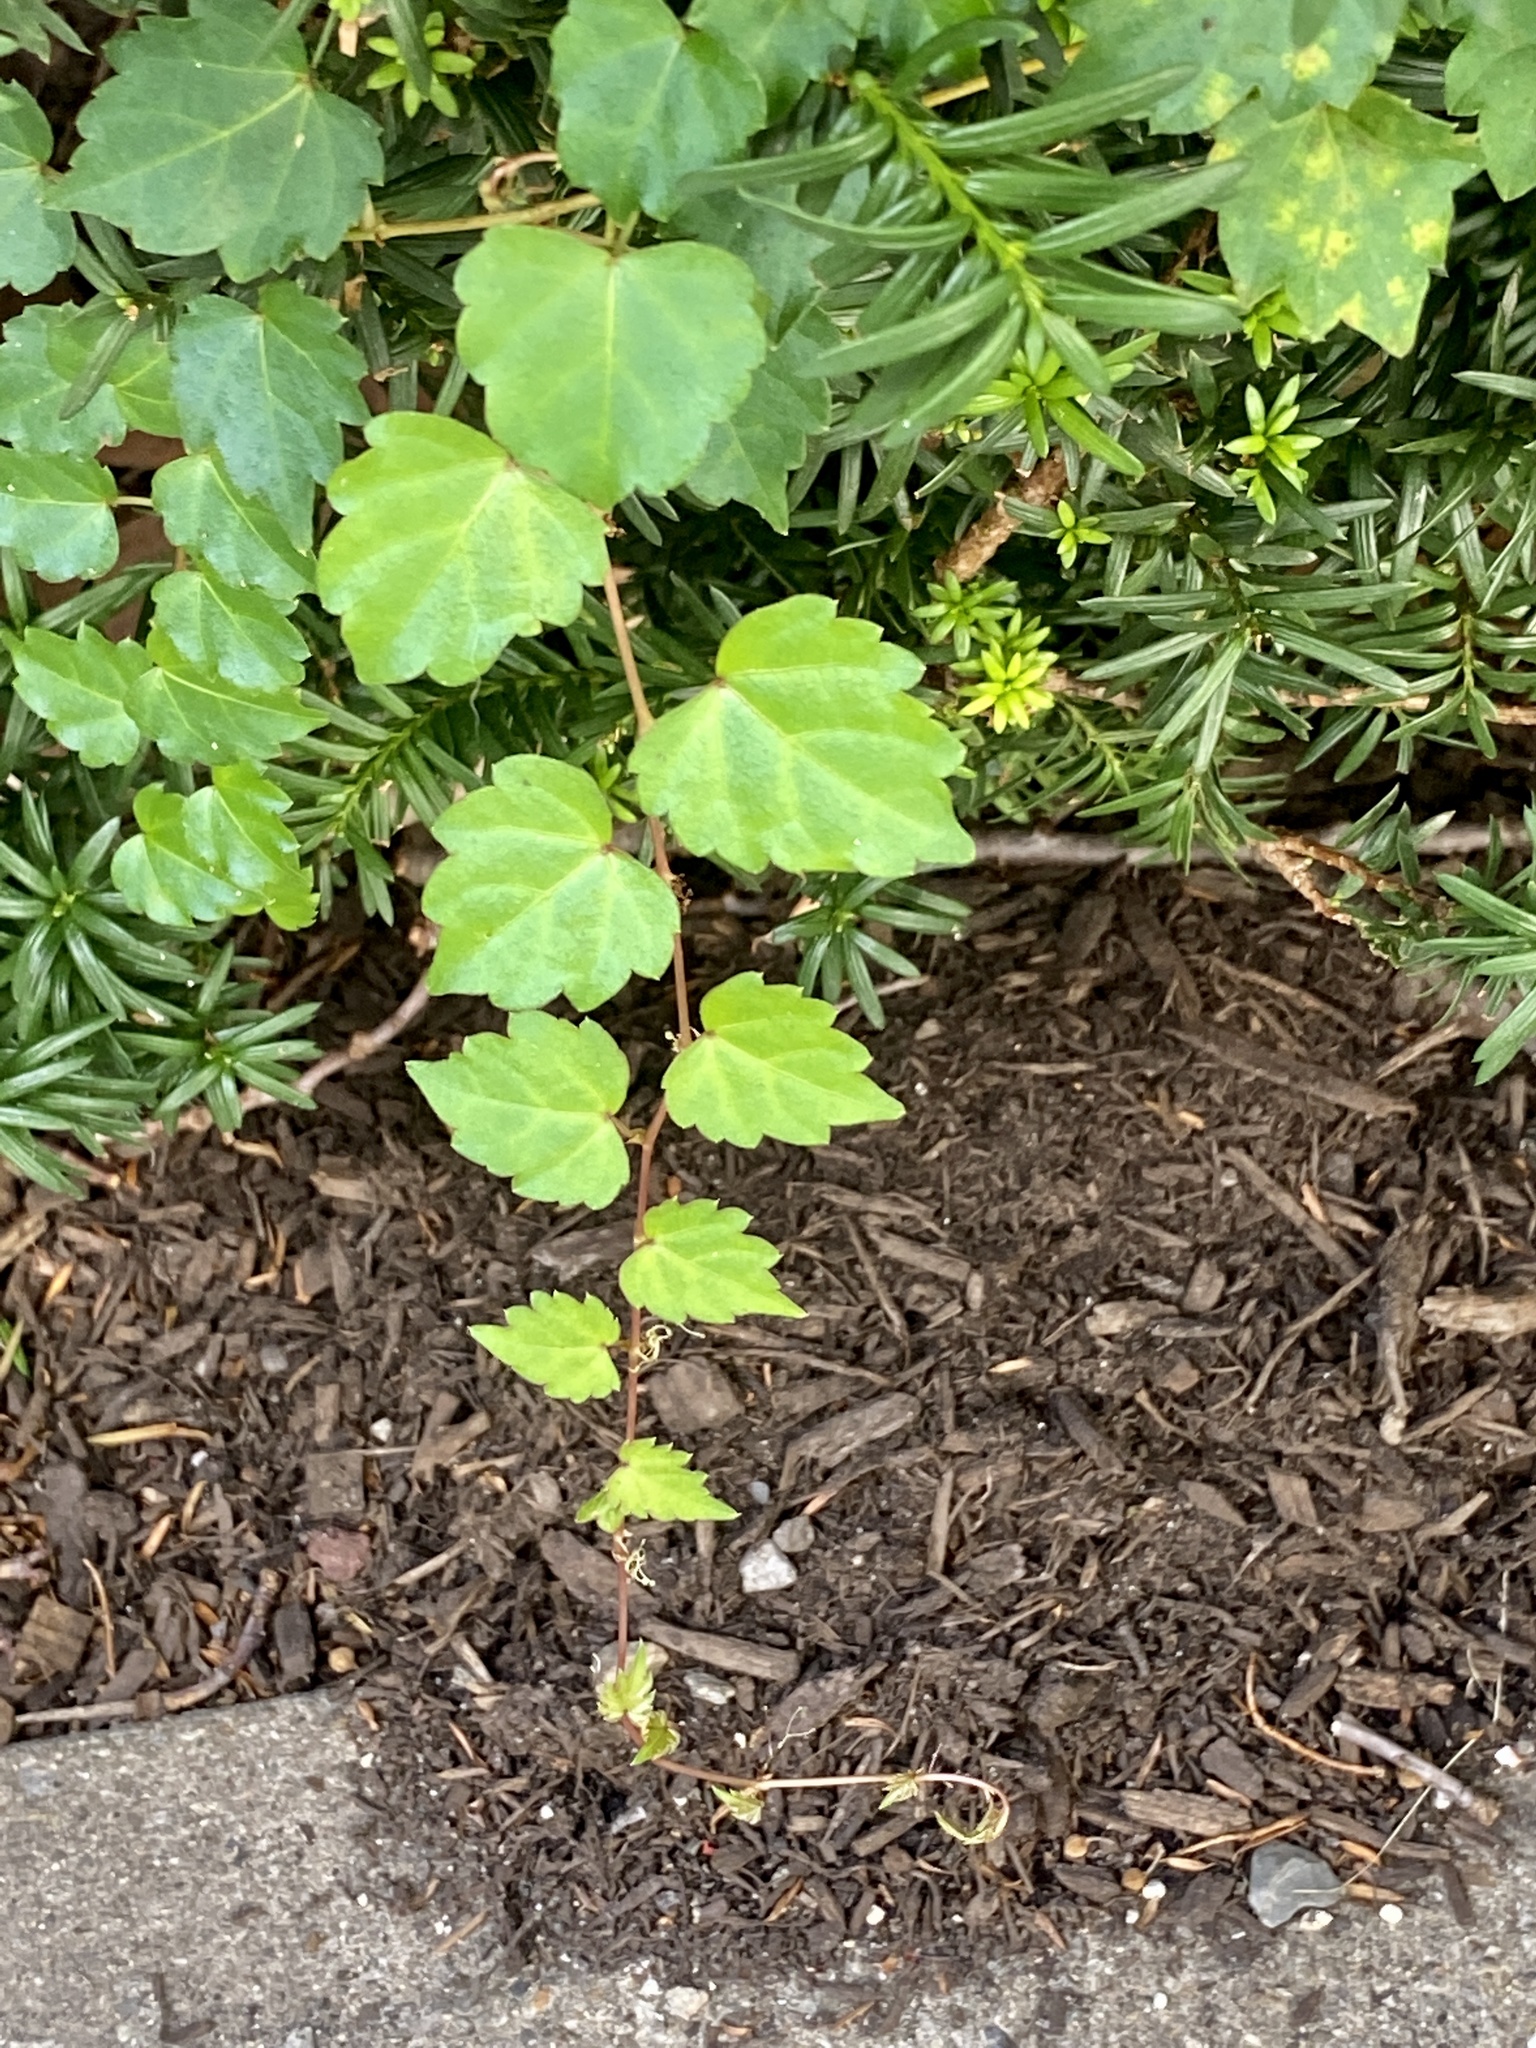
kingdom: Plantae
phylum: Tracheophyta
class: Magnoliopsida
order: Vitales
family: Vitaceae
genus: Parthenocissus
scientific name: Parthenocissus tricuspidata
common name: Boston ivy
